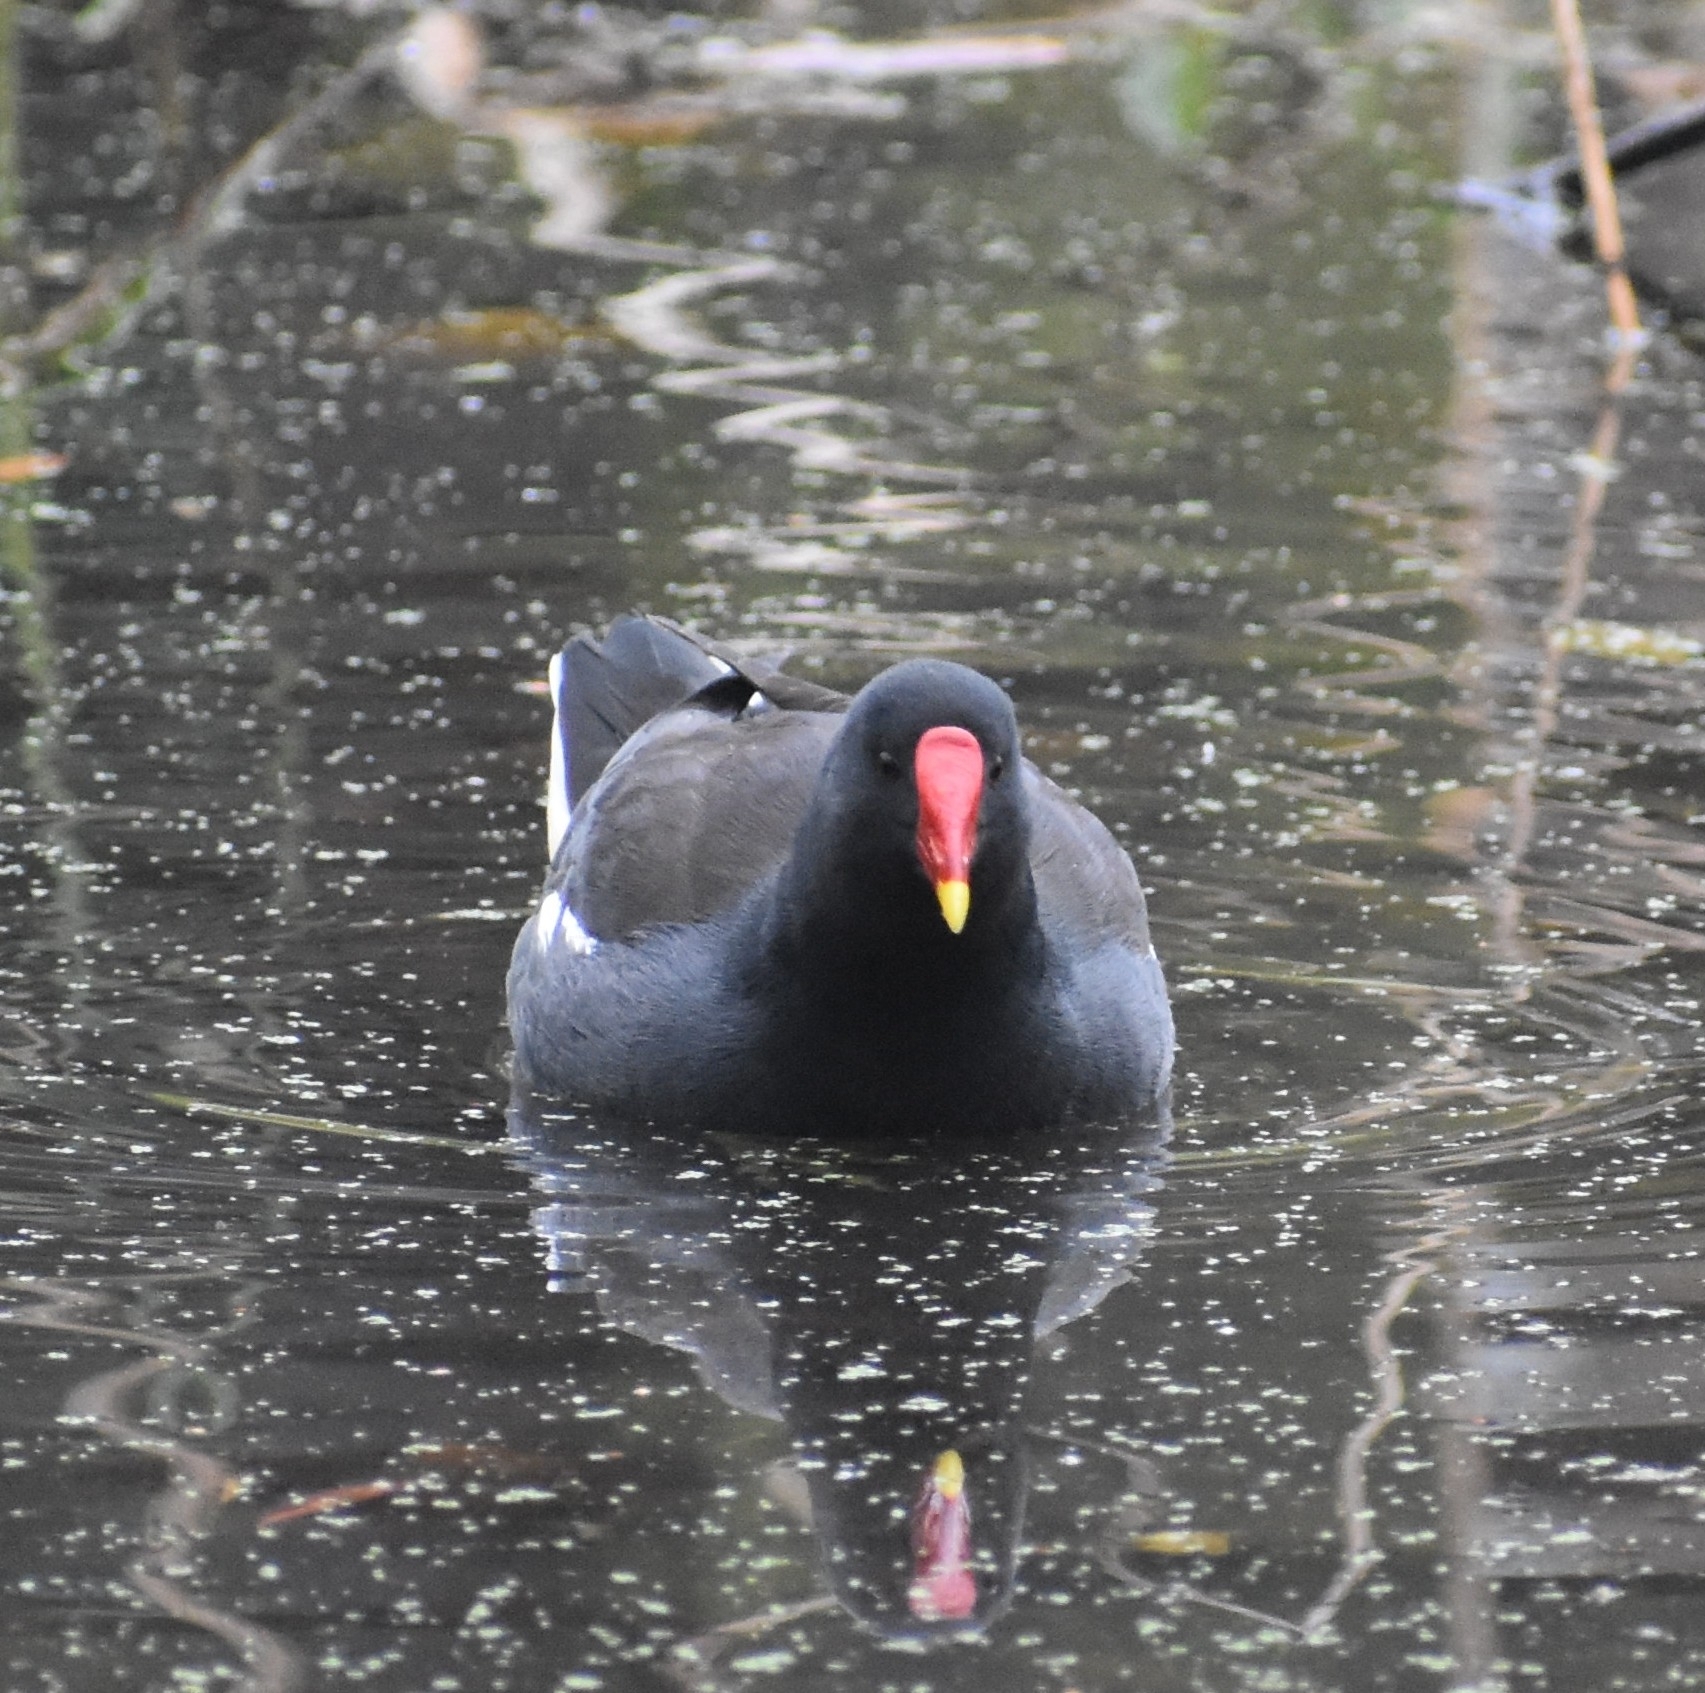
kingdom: Animalia
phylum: Chordata
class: Aves
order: Gruiformes
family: Rallidae
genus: Gallinula
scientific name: Gallinula chloropus
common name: Common moorhen
